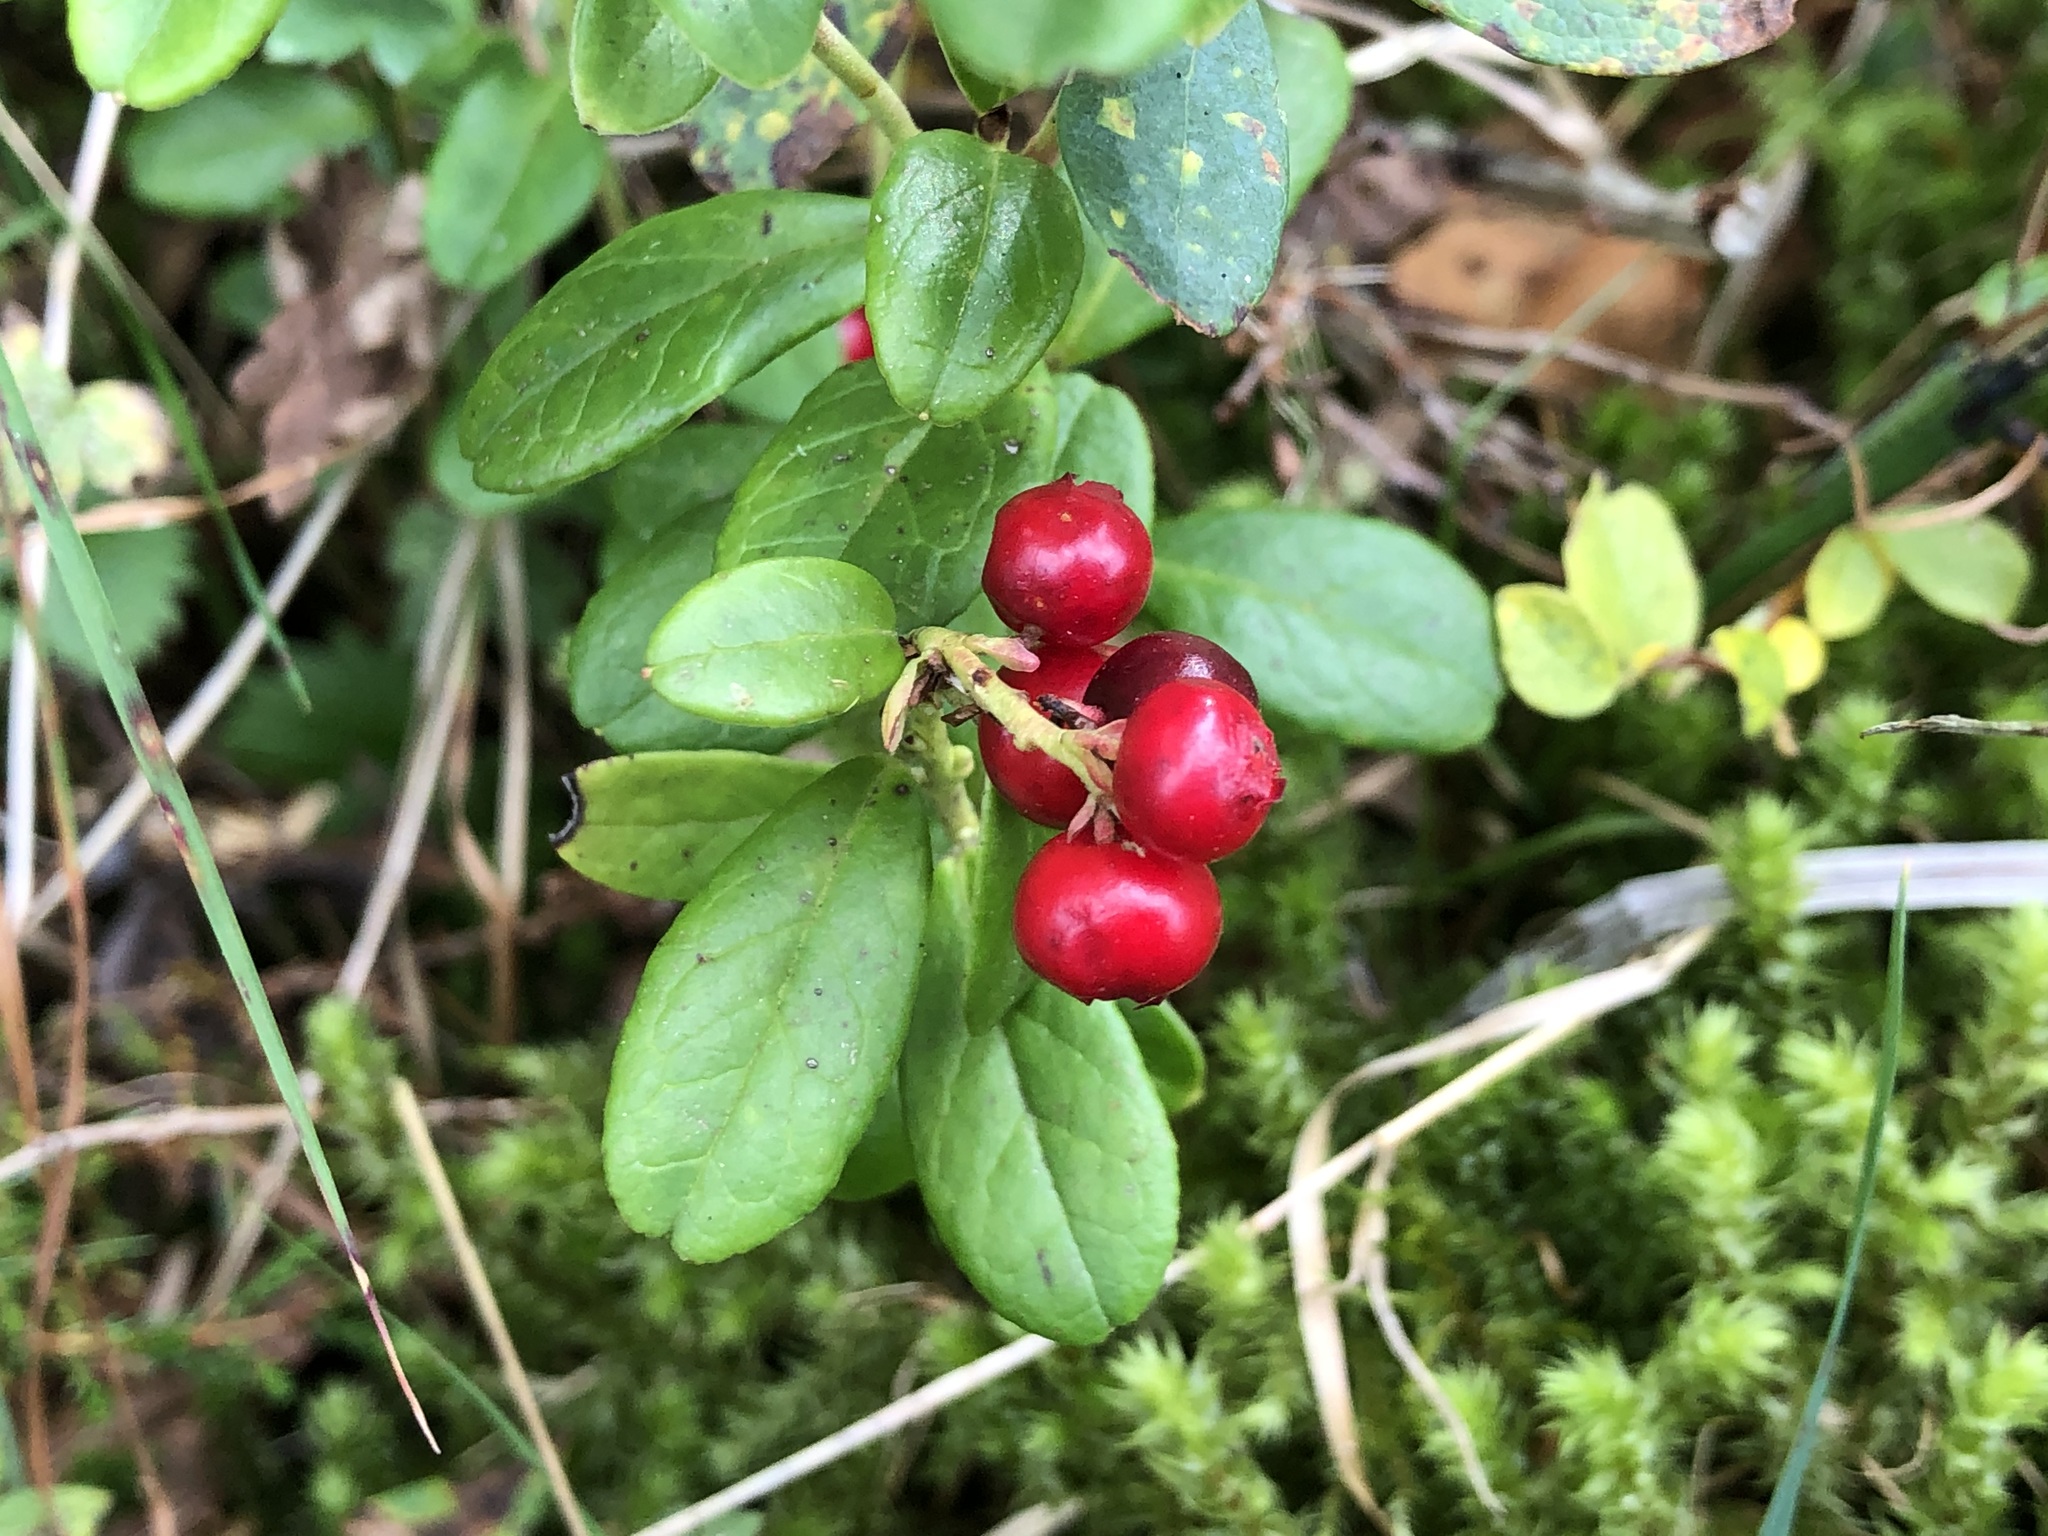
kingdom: Plantae
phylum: Tracheophyta
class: Magnoliopsida
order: Ericales
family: Ericaceae
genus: Vaccinium
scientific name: Vaccinium vitis-idaea
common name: Cowberry
